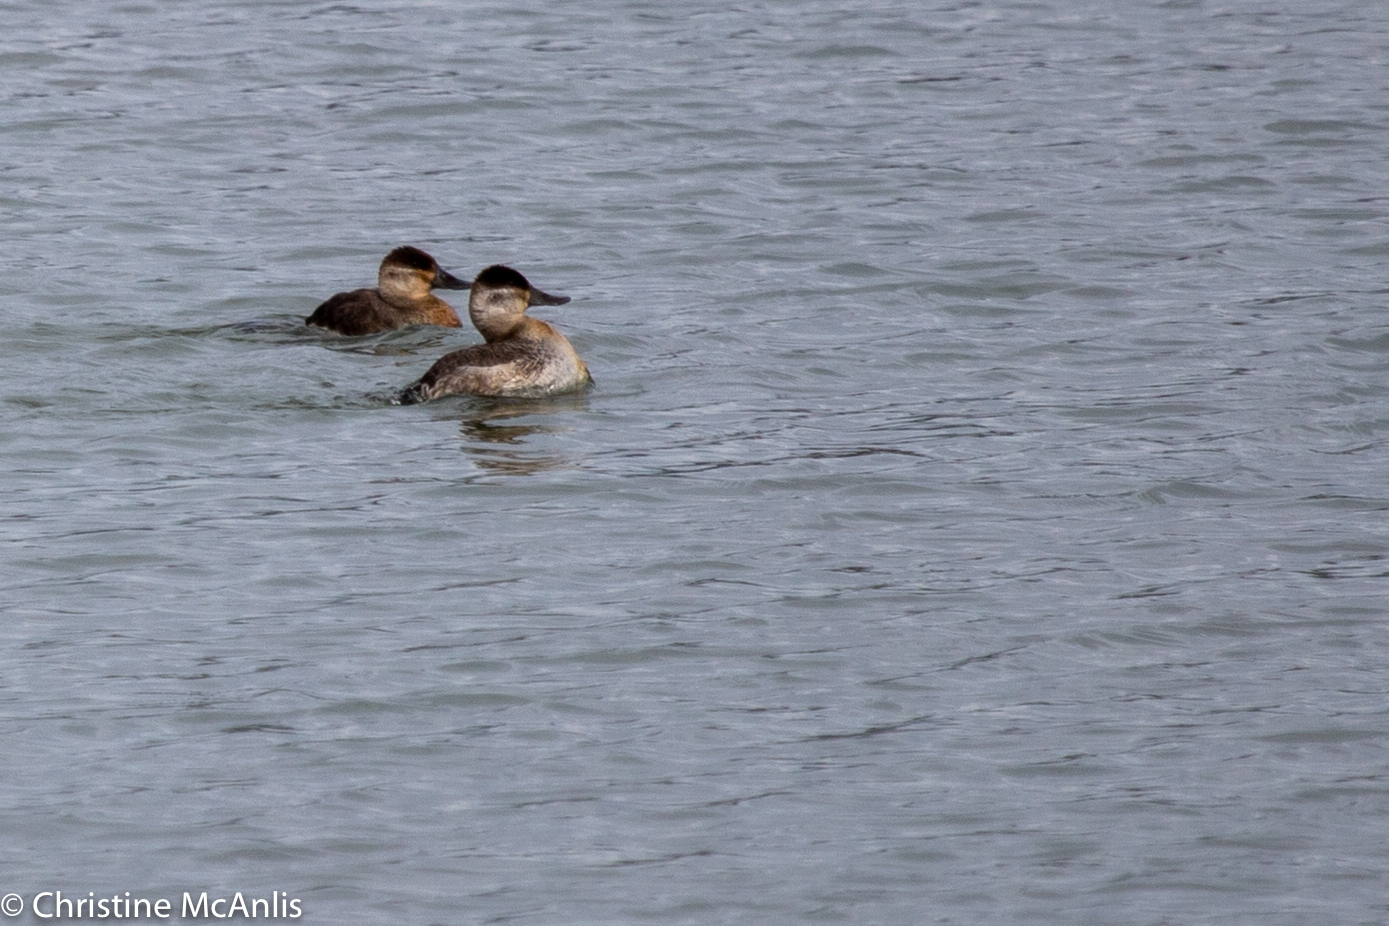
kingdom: Animalia
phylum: Chordata
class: Aves
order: Anseriformes
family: Anatidae
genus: Oxyura
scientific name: Oxyura jamaicensis
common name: Ruddy duck
